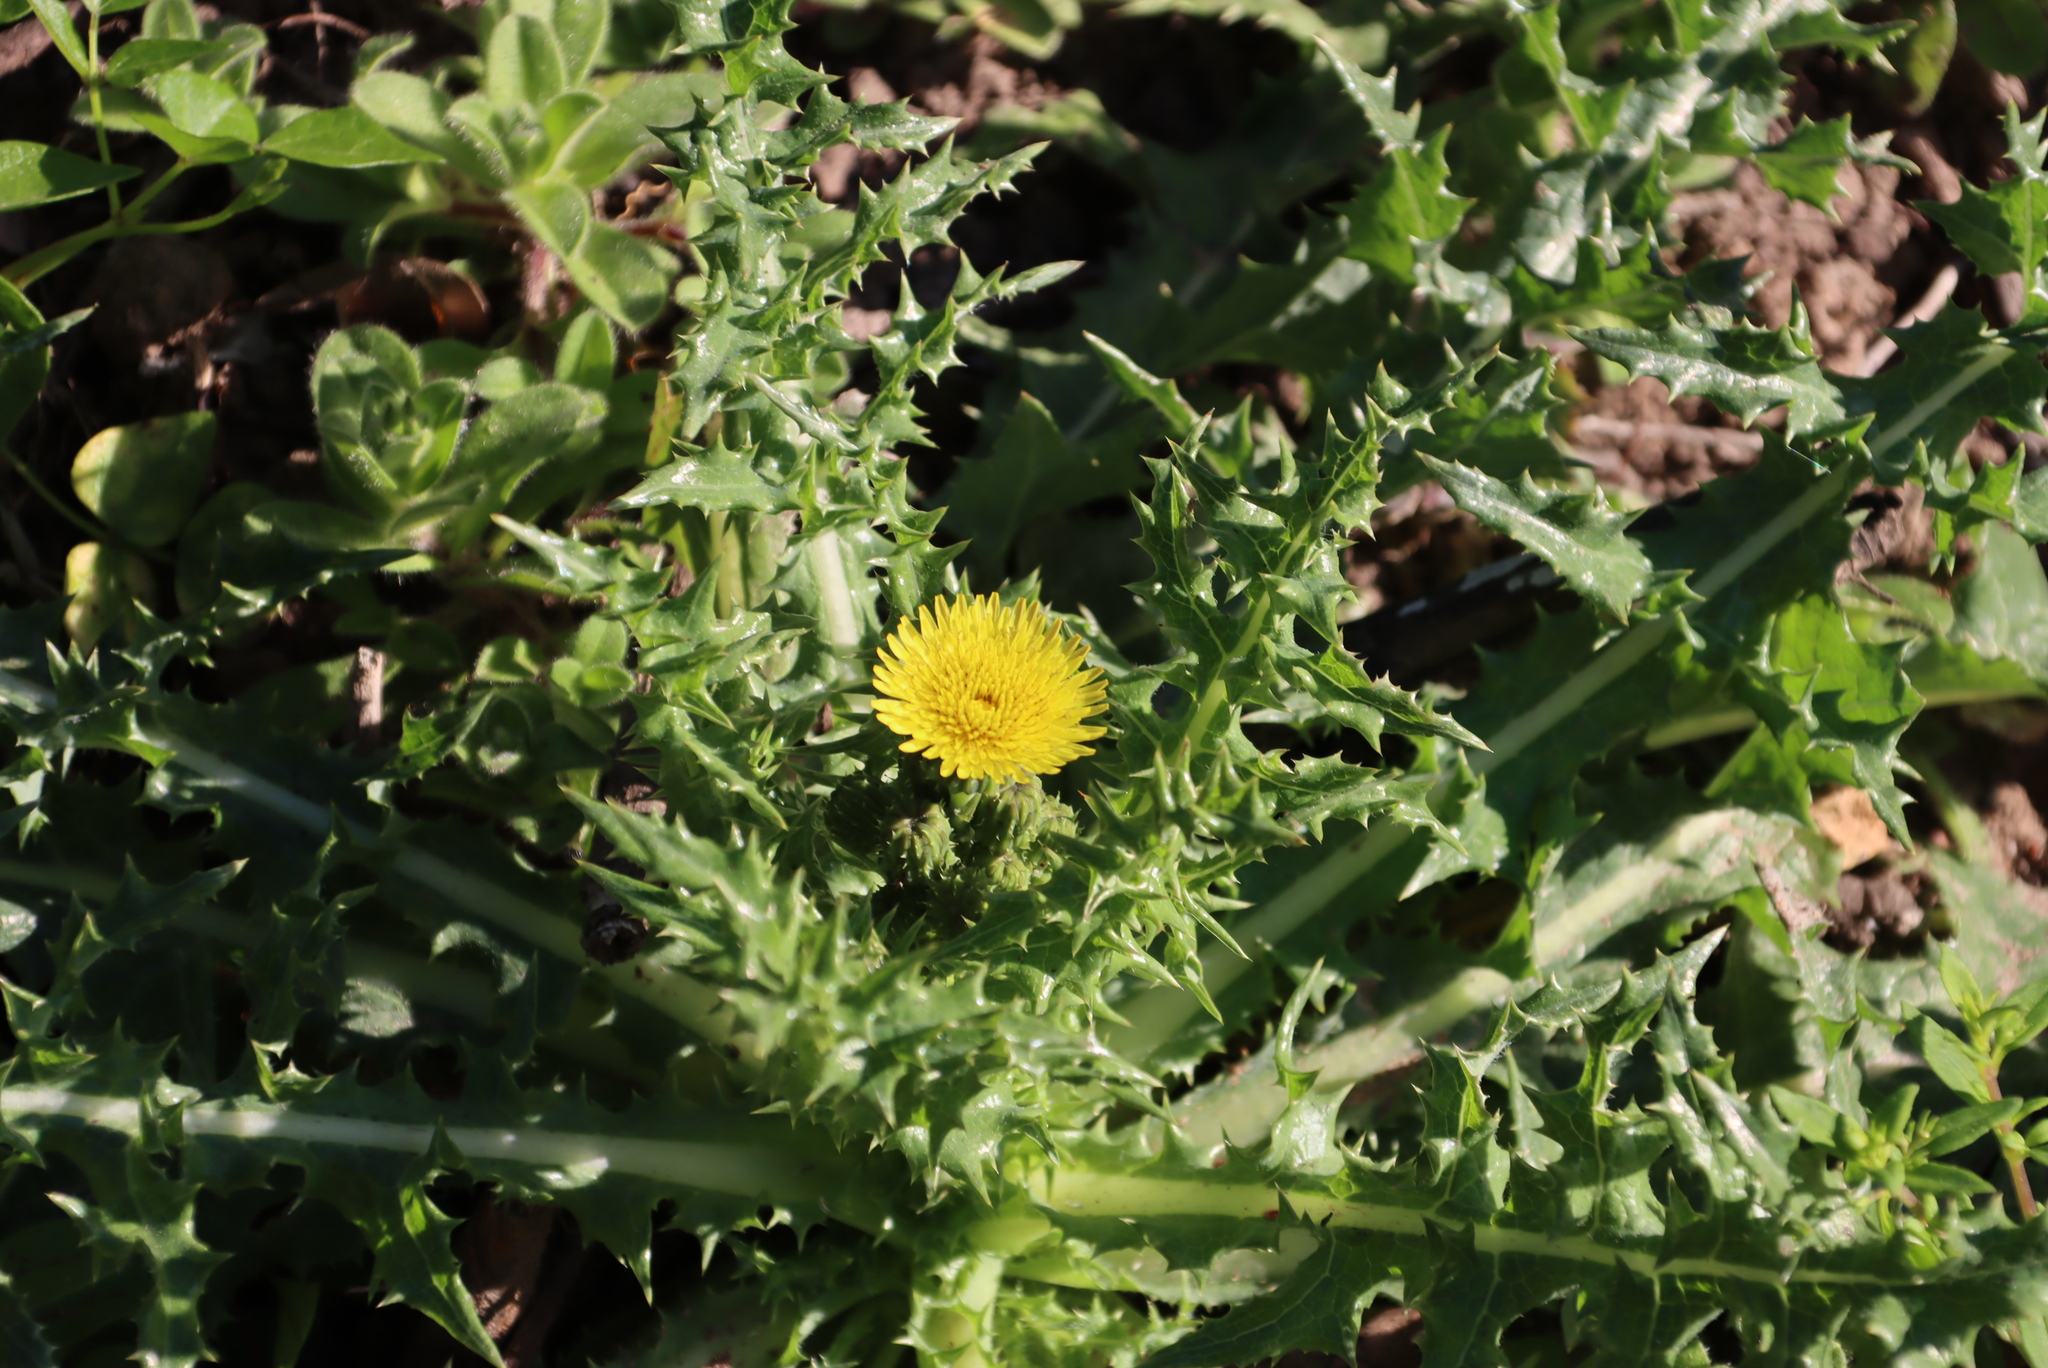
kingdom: Plantae
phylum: Tracheophyta
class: Magnoliopsida
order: Asterales
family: Asteraceae
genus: Sonchus
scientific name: Sonchus asper
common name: Prickly sow-thistle
